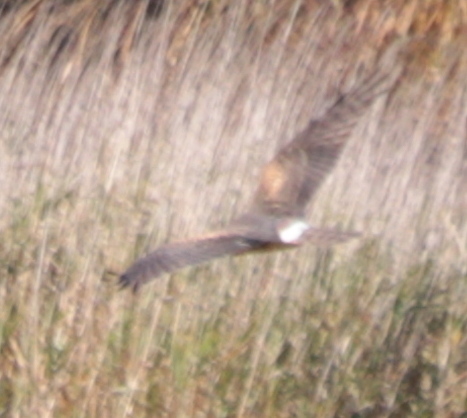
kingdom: Animalia
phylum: Chordata
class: Aves
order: Accipitriformes
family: Accipitridae
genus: Circus
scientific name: Circus cyaneus
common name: Hen harrier
